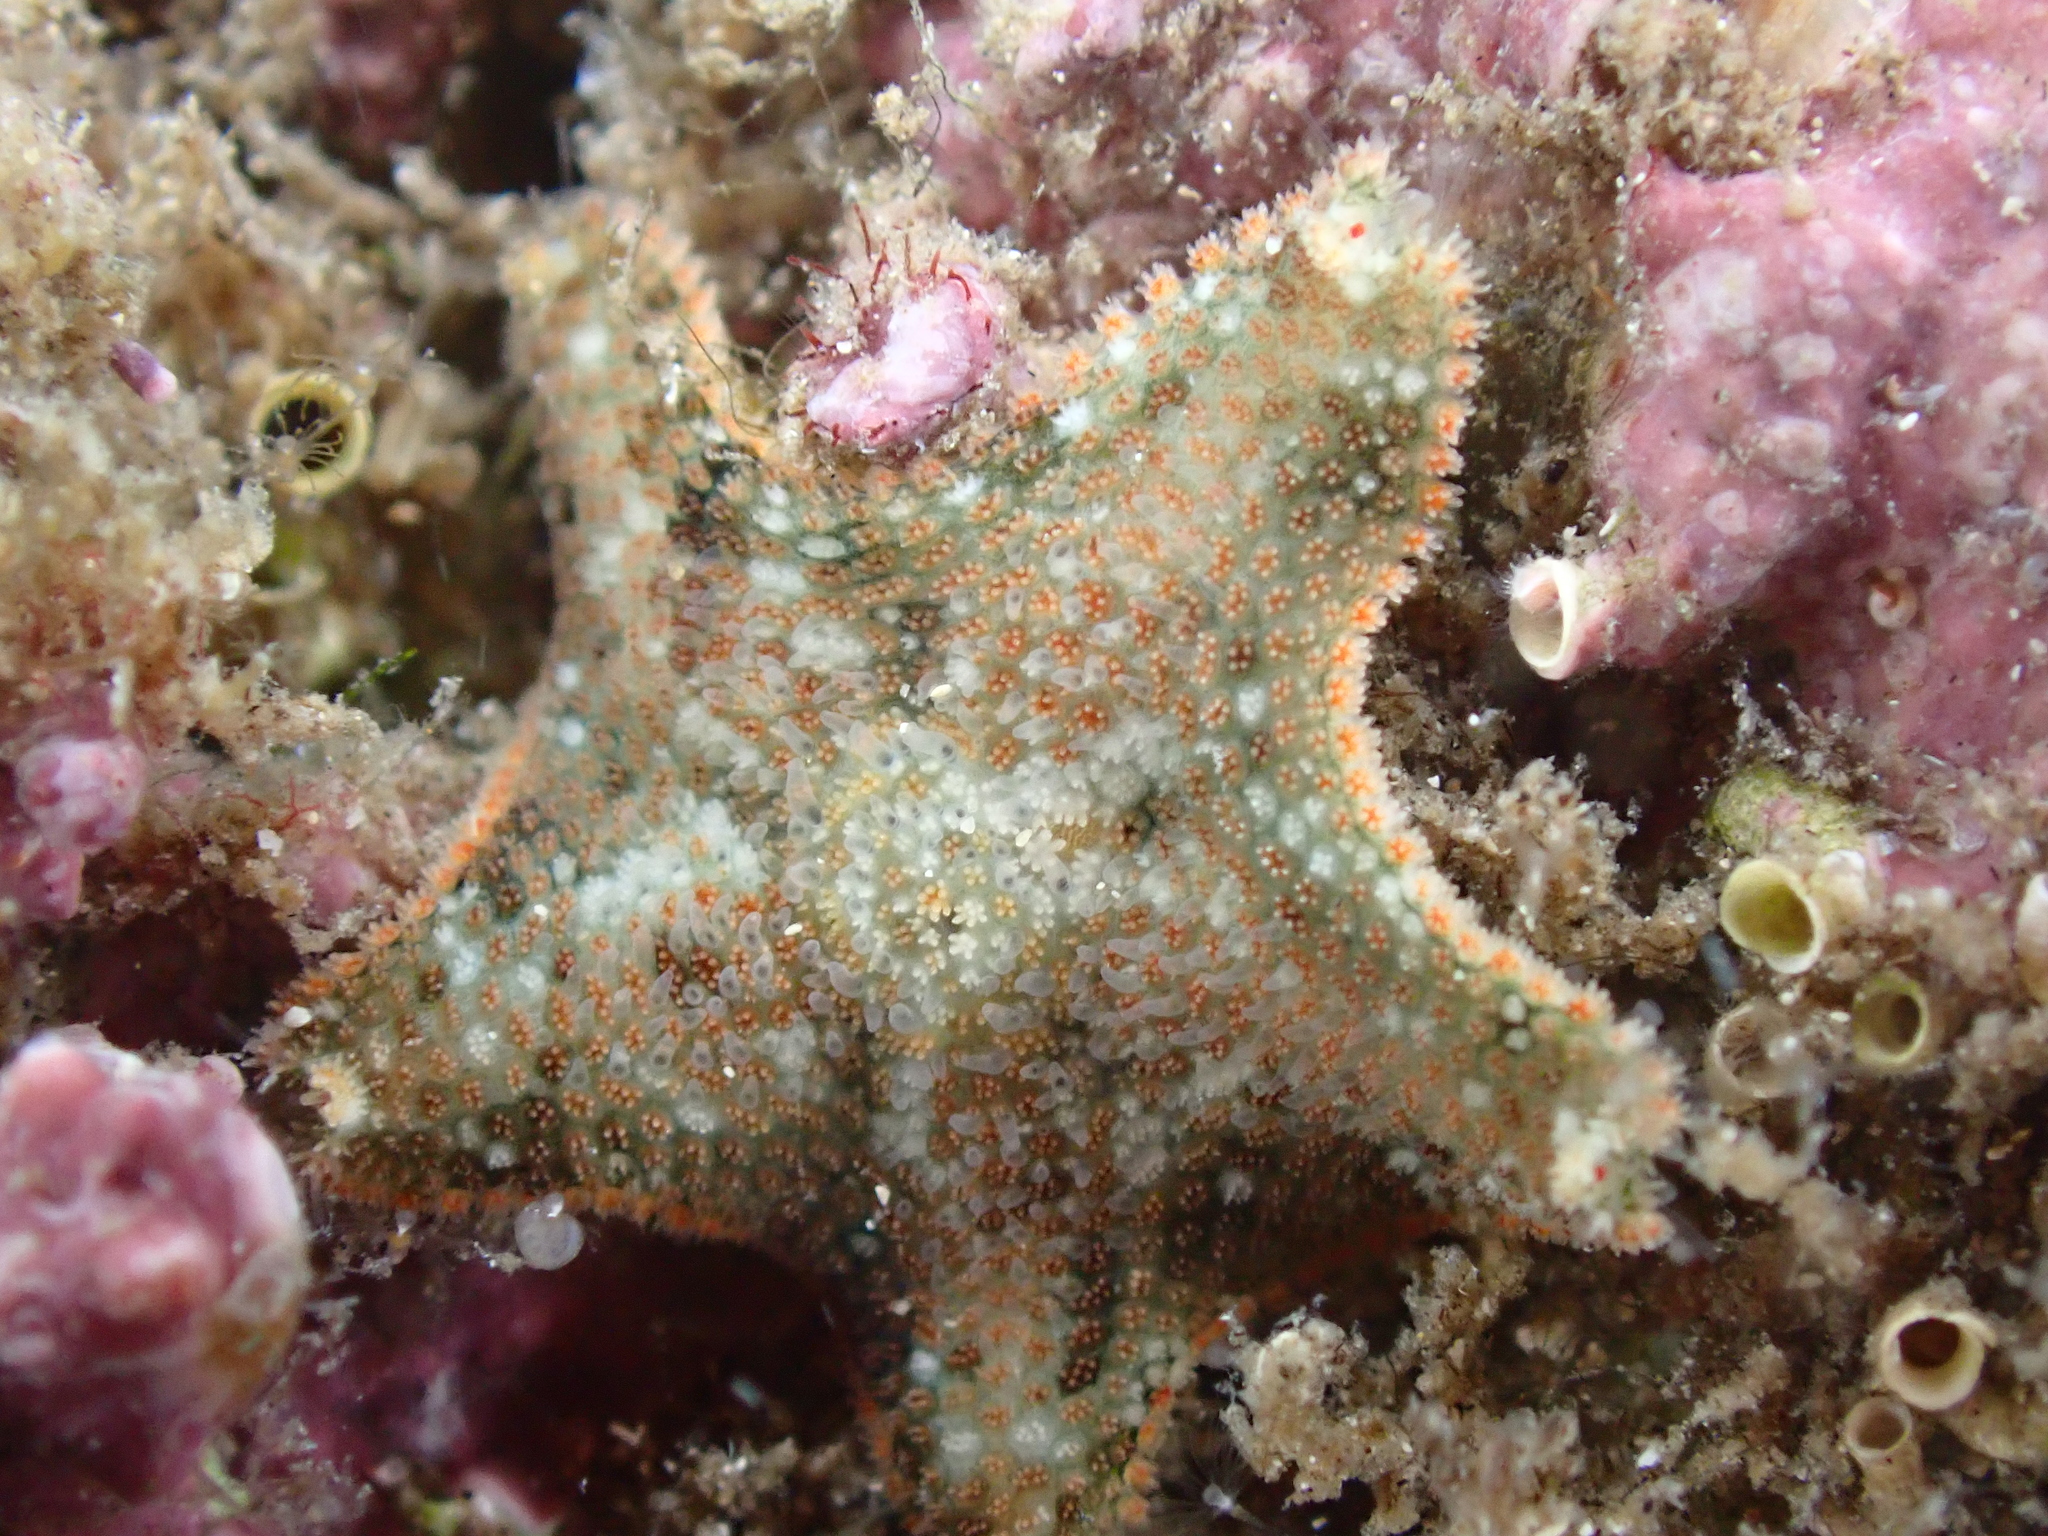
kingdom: Animalia
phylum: Echinodermata
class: Asteroidea
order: Valvatida
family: Asterinidae
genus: Asterina
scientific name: Asterina gibbosa
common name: Cushion star
